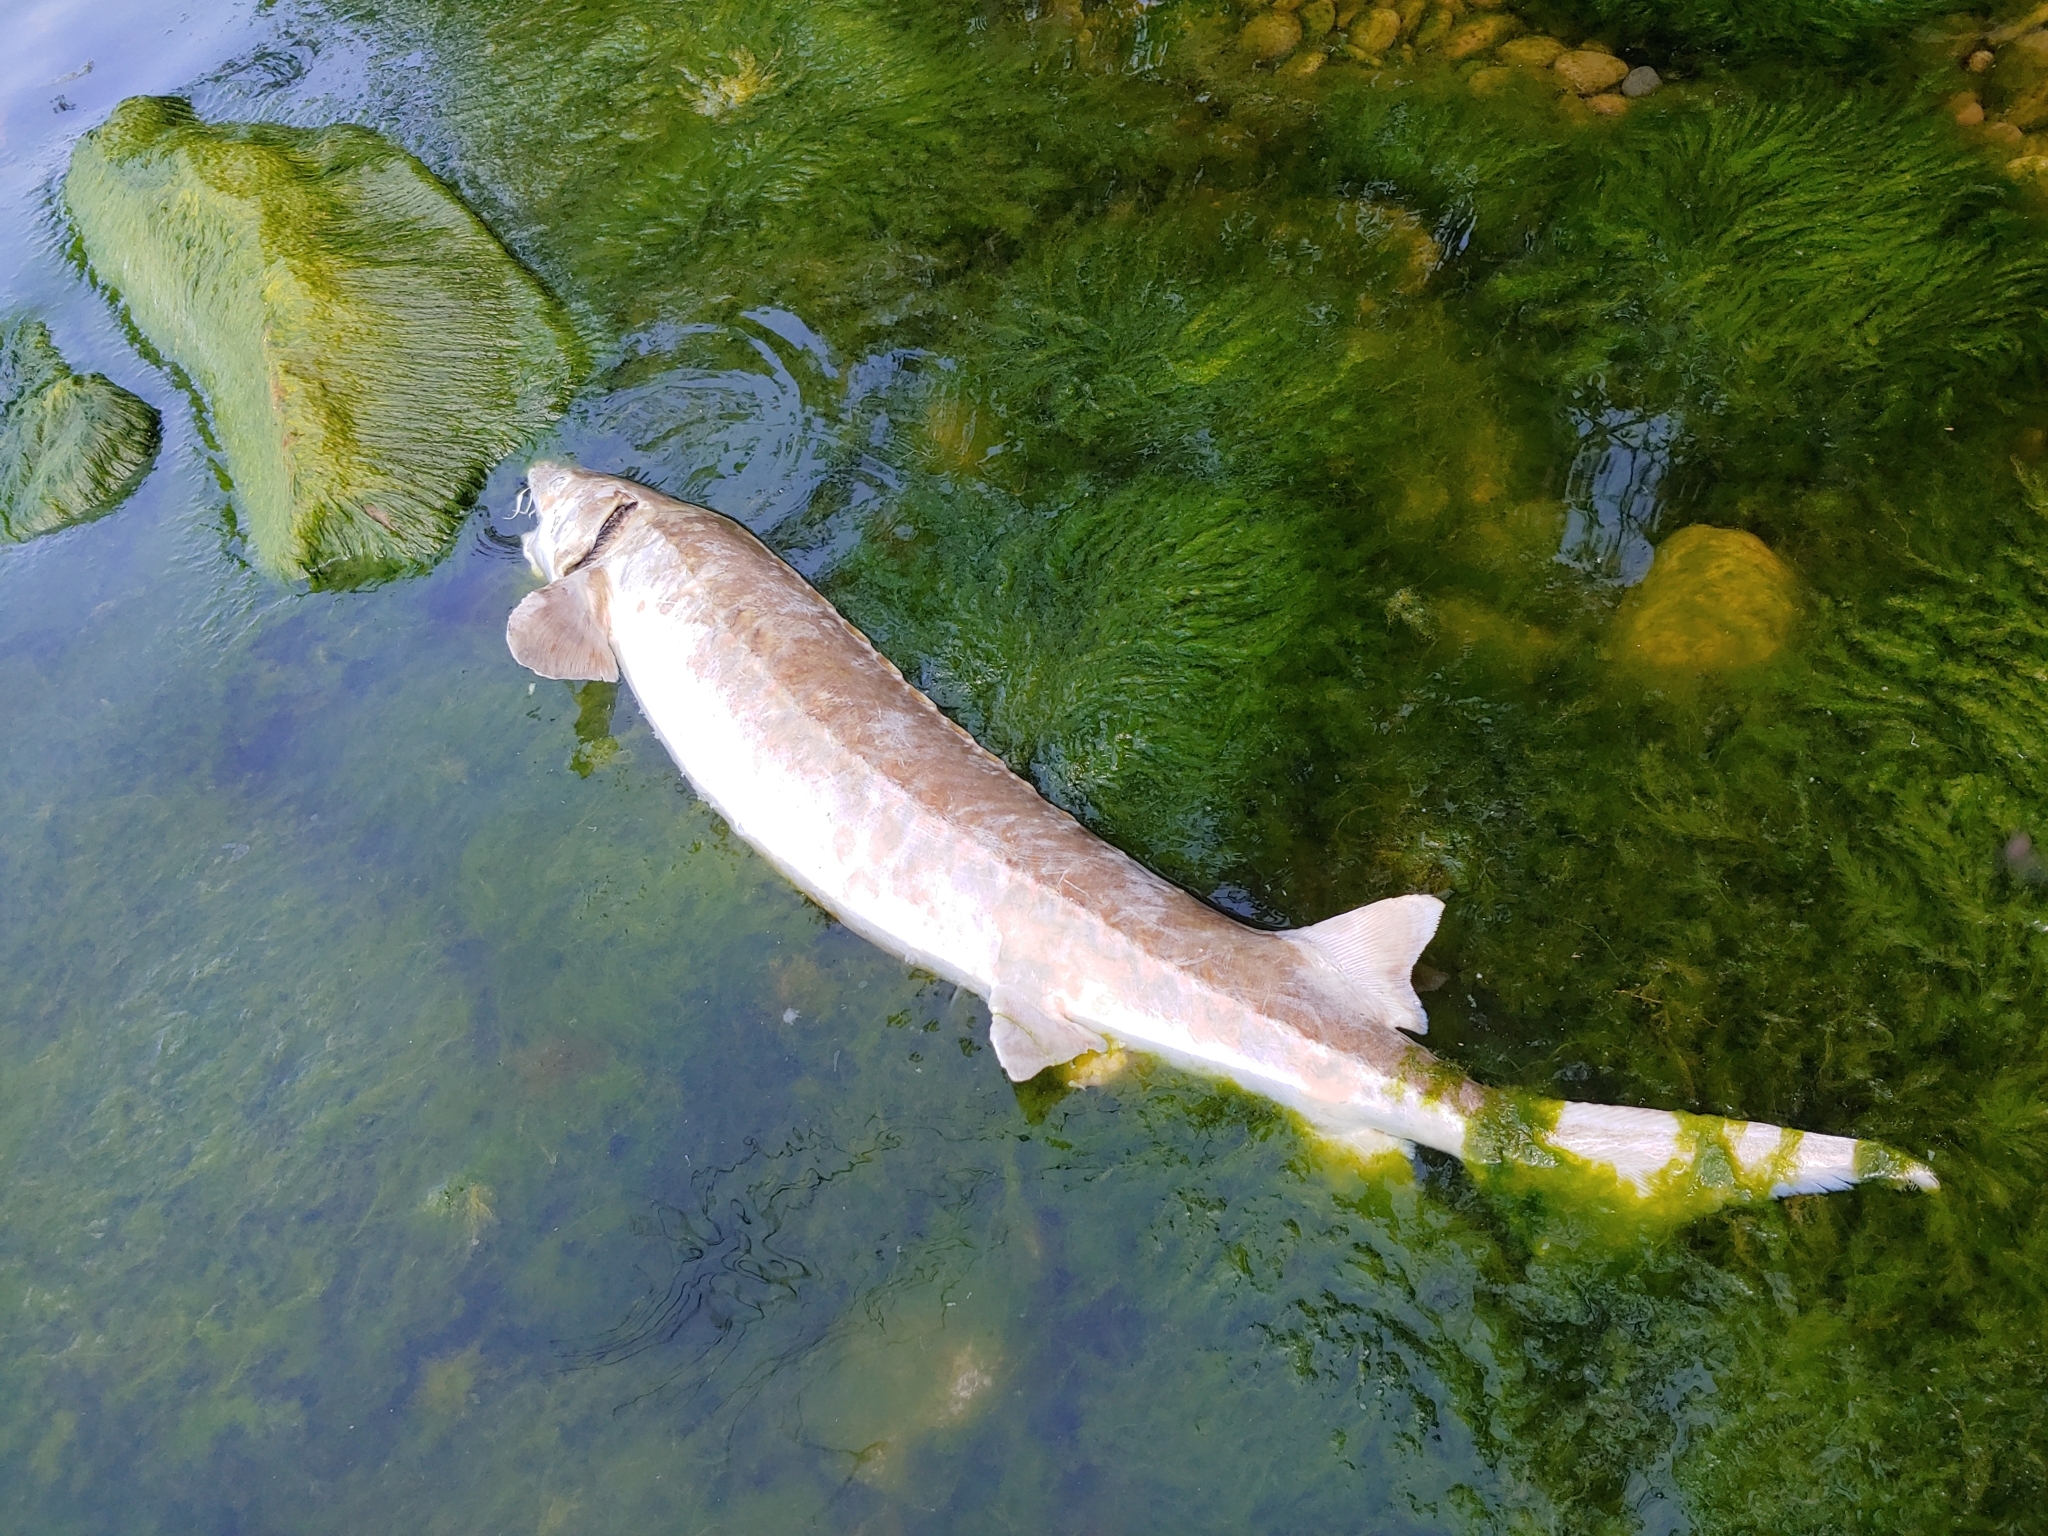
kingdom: Animalia
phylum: Chordata
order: Acipenseriformes
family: Acipenseridae
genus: Acipenser
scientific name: Acipenser fulvescens
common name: Lake sturgeon
